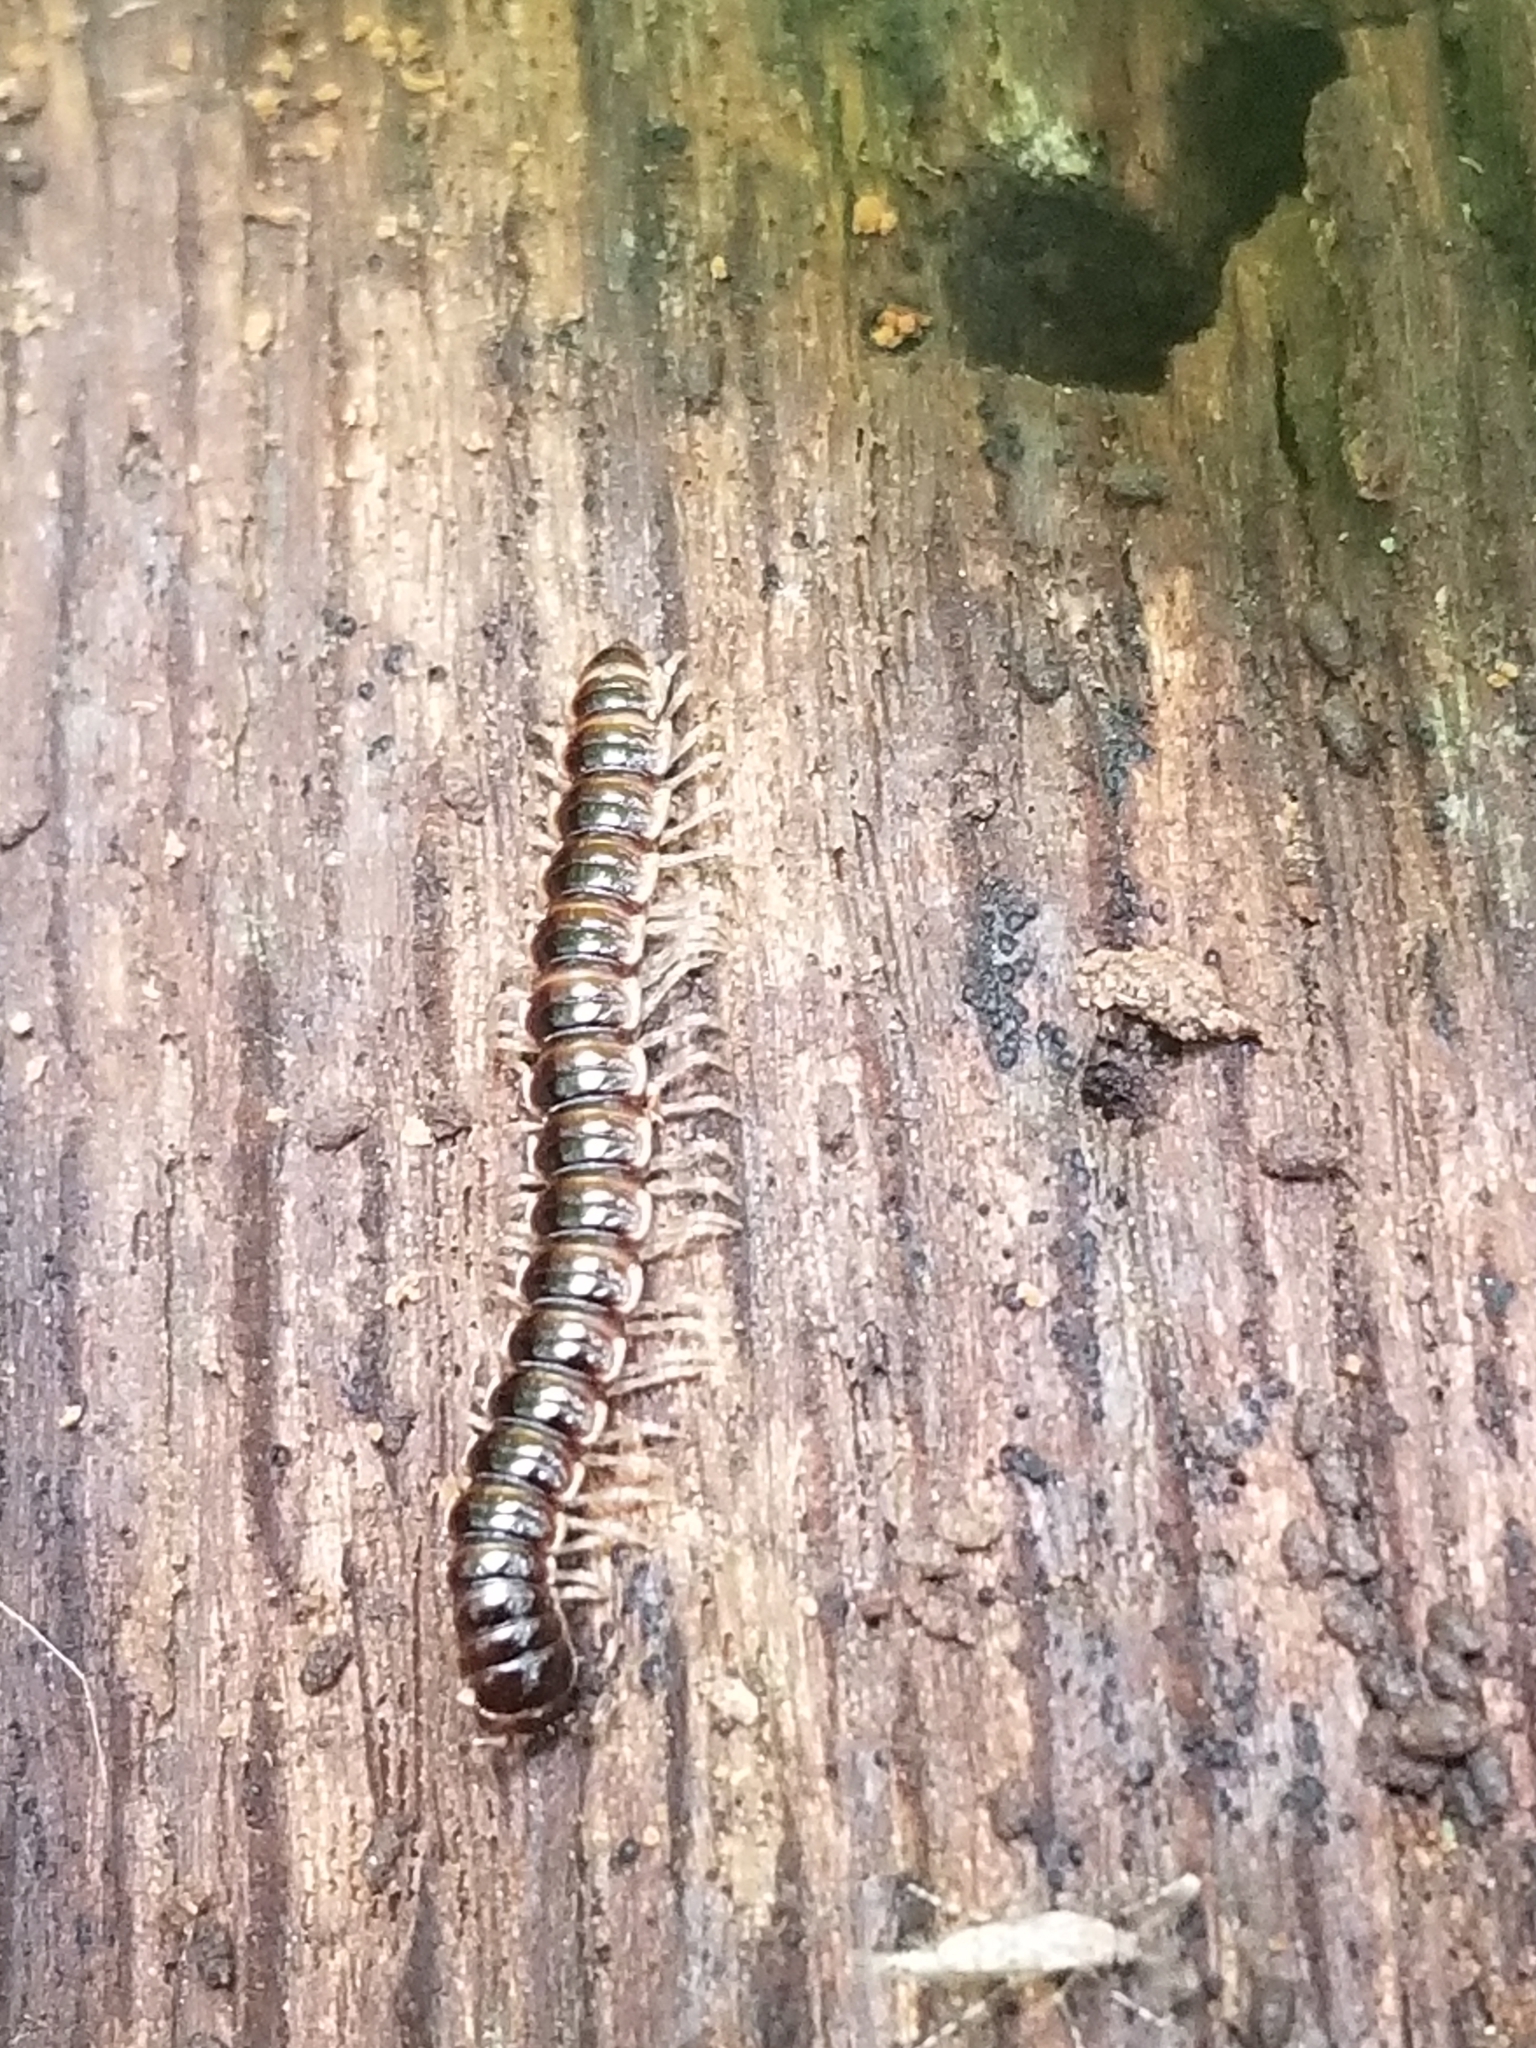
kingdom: Animalia
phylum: Arthropoda
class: Diplopoda
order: Polydesmida
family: Paradoxosomatidae
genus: Oxidus
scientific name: Oxidus gracilis
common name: Greenhouse millipede
